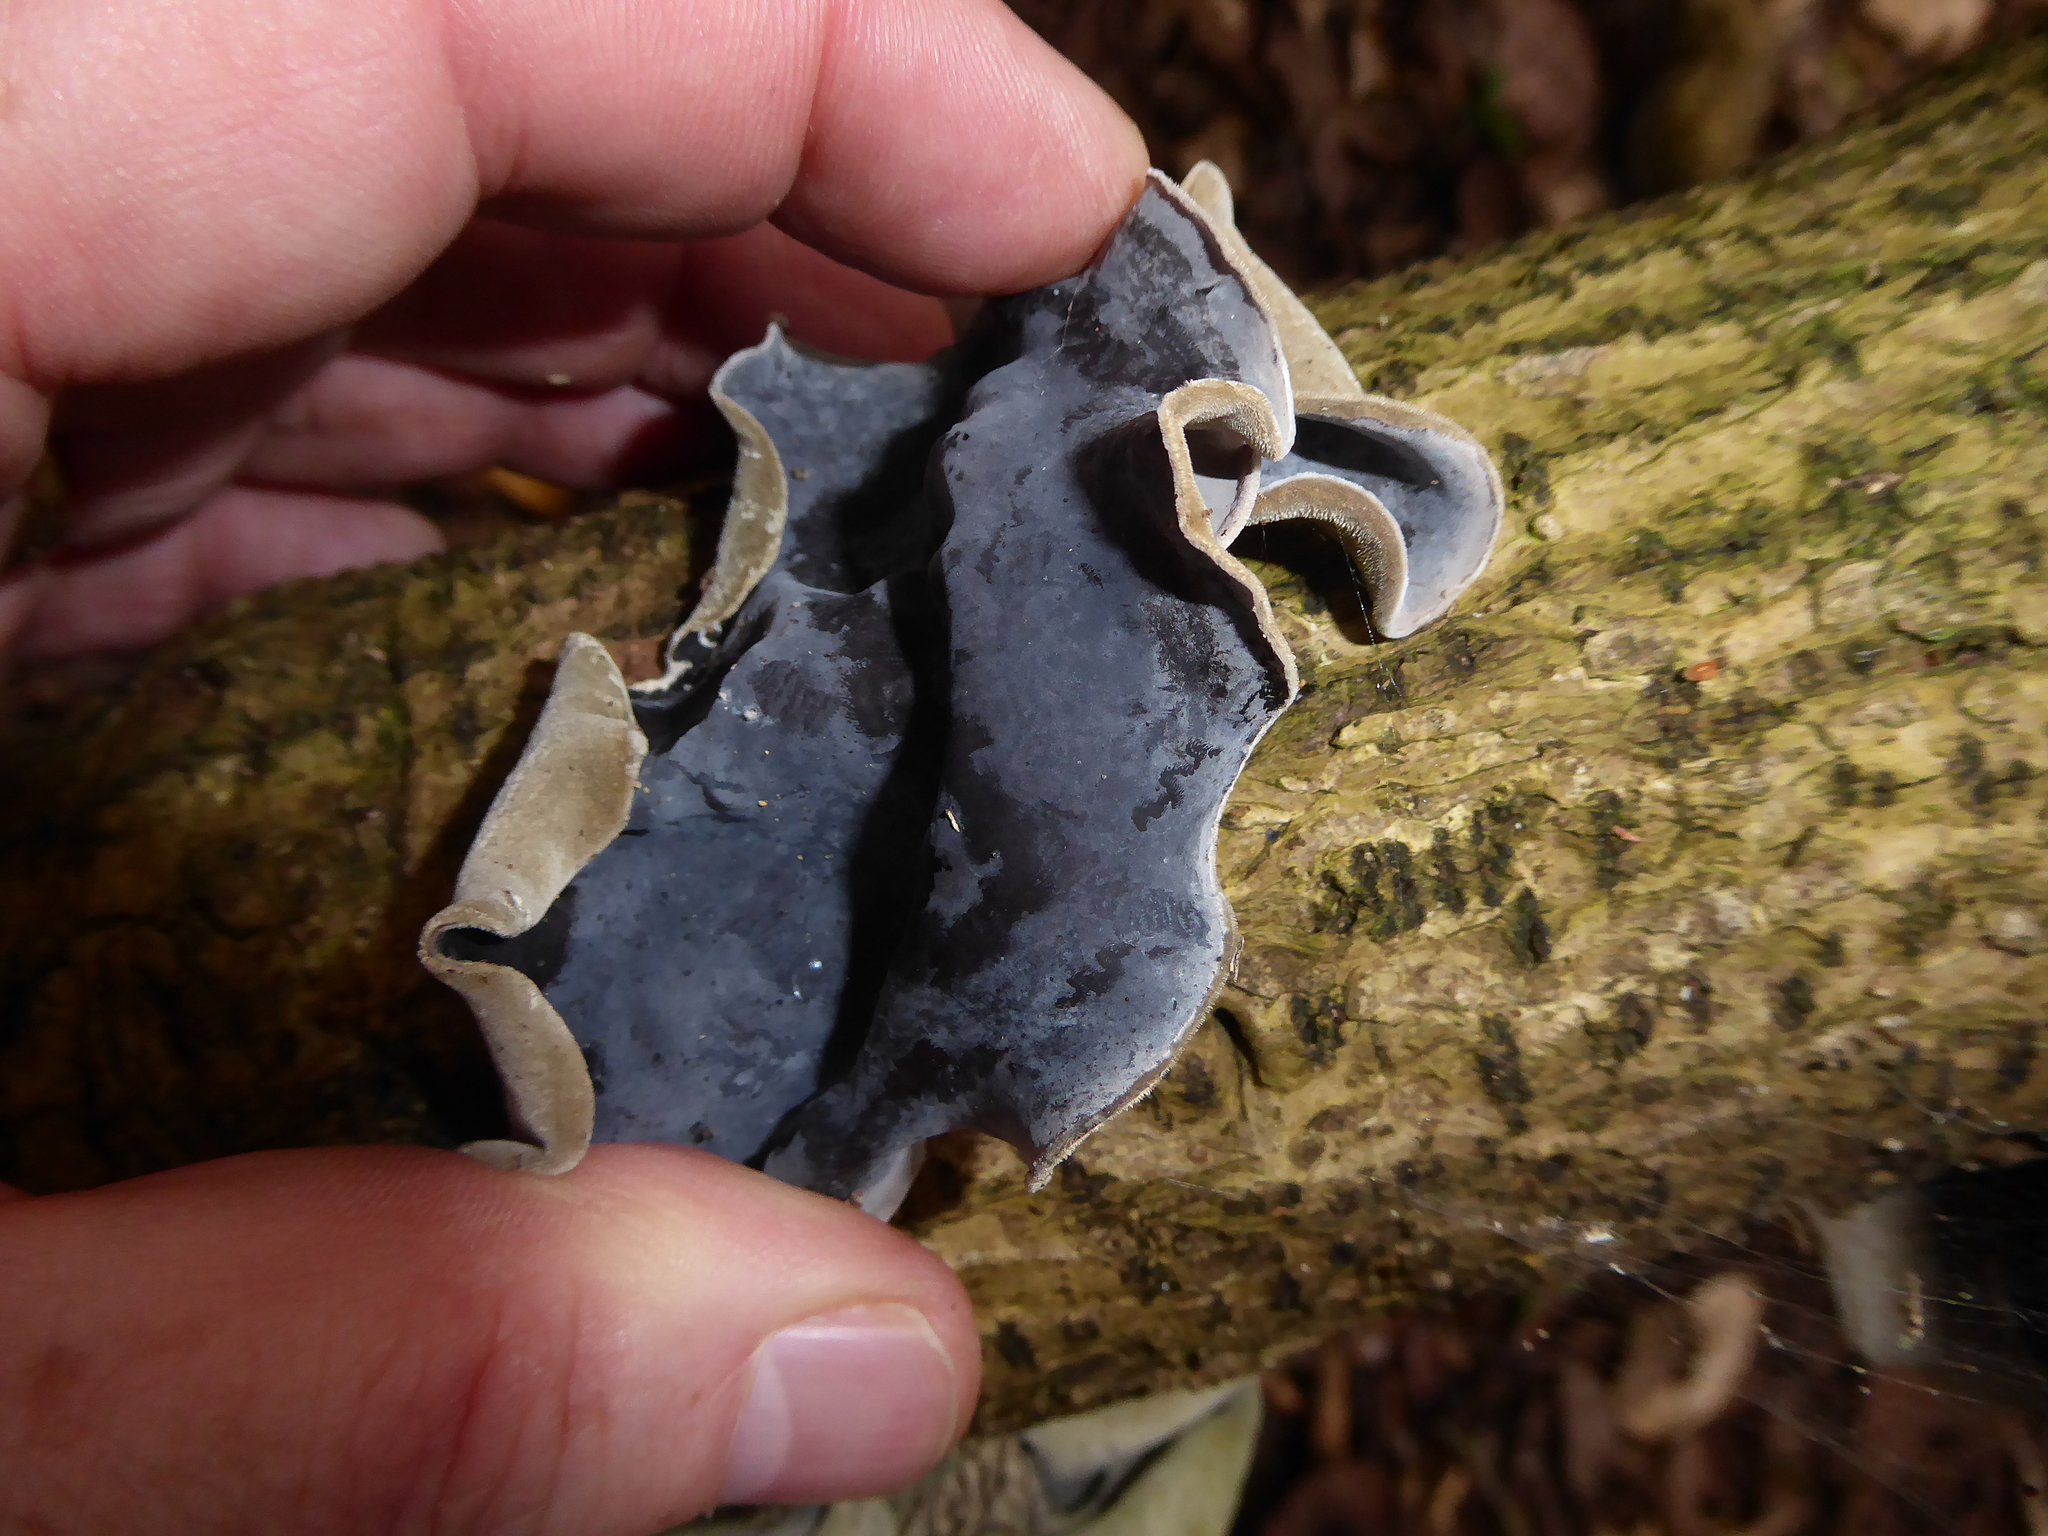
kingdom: Fungi
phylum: Basidiomycota
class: Agaricomycetes
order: Auriculariales
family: Auriculariaceae
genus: Auricularia
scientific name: Auricularia cornea
